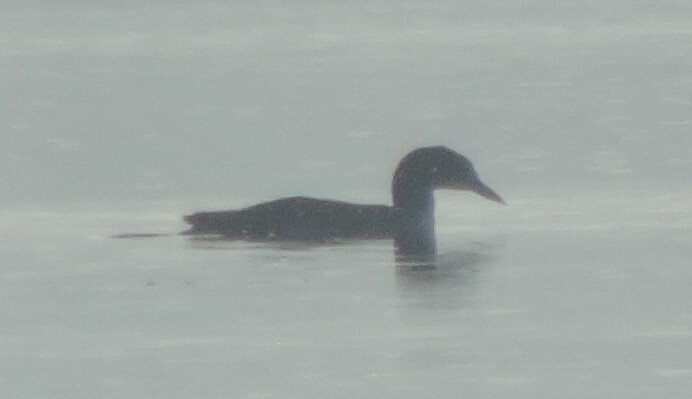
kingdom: Animalia
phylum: Chordata
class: Aves
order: Gaviiformes
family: Gaviidae
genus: Gavia
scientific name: Gavia immer
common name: Common loon
